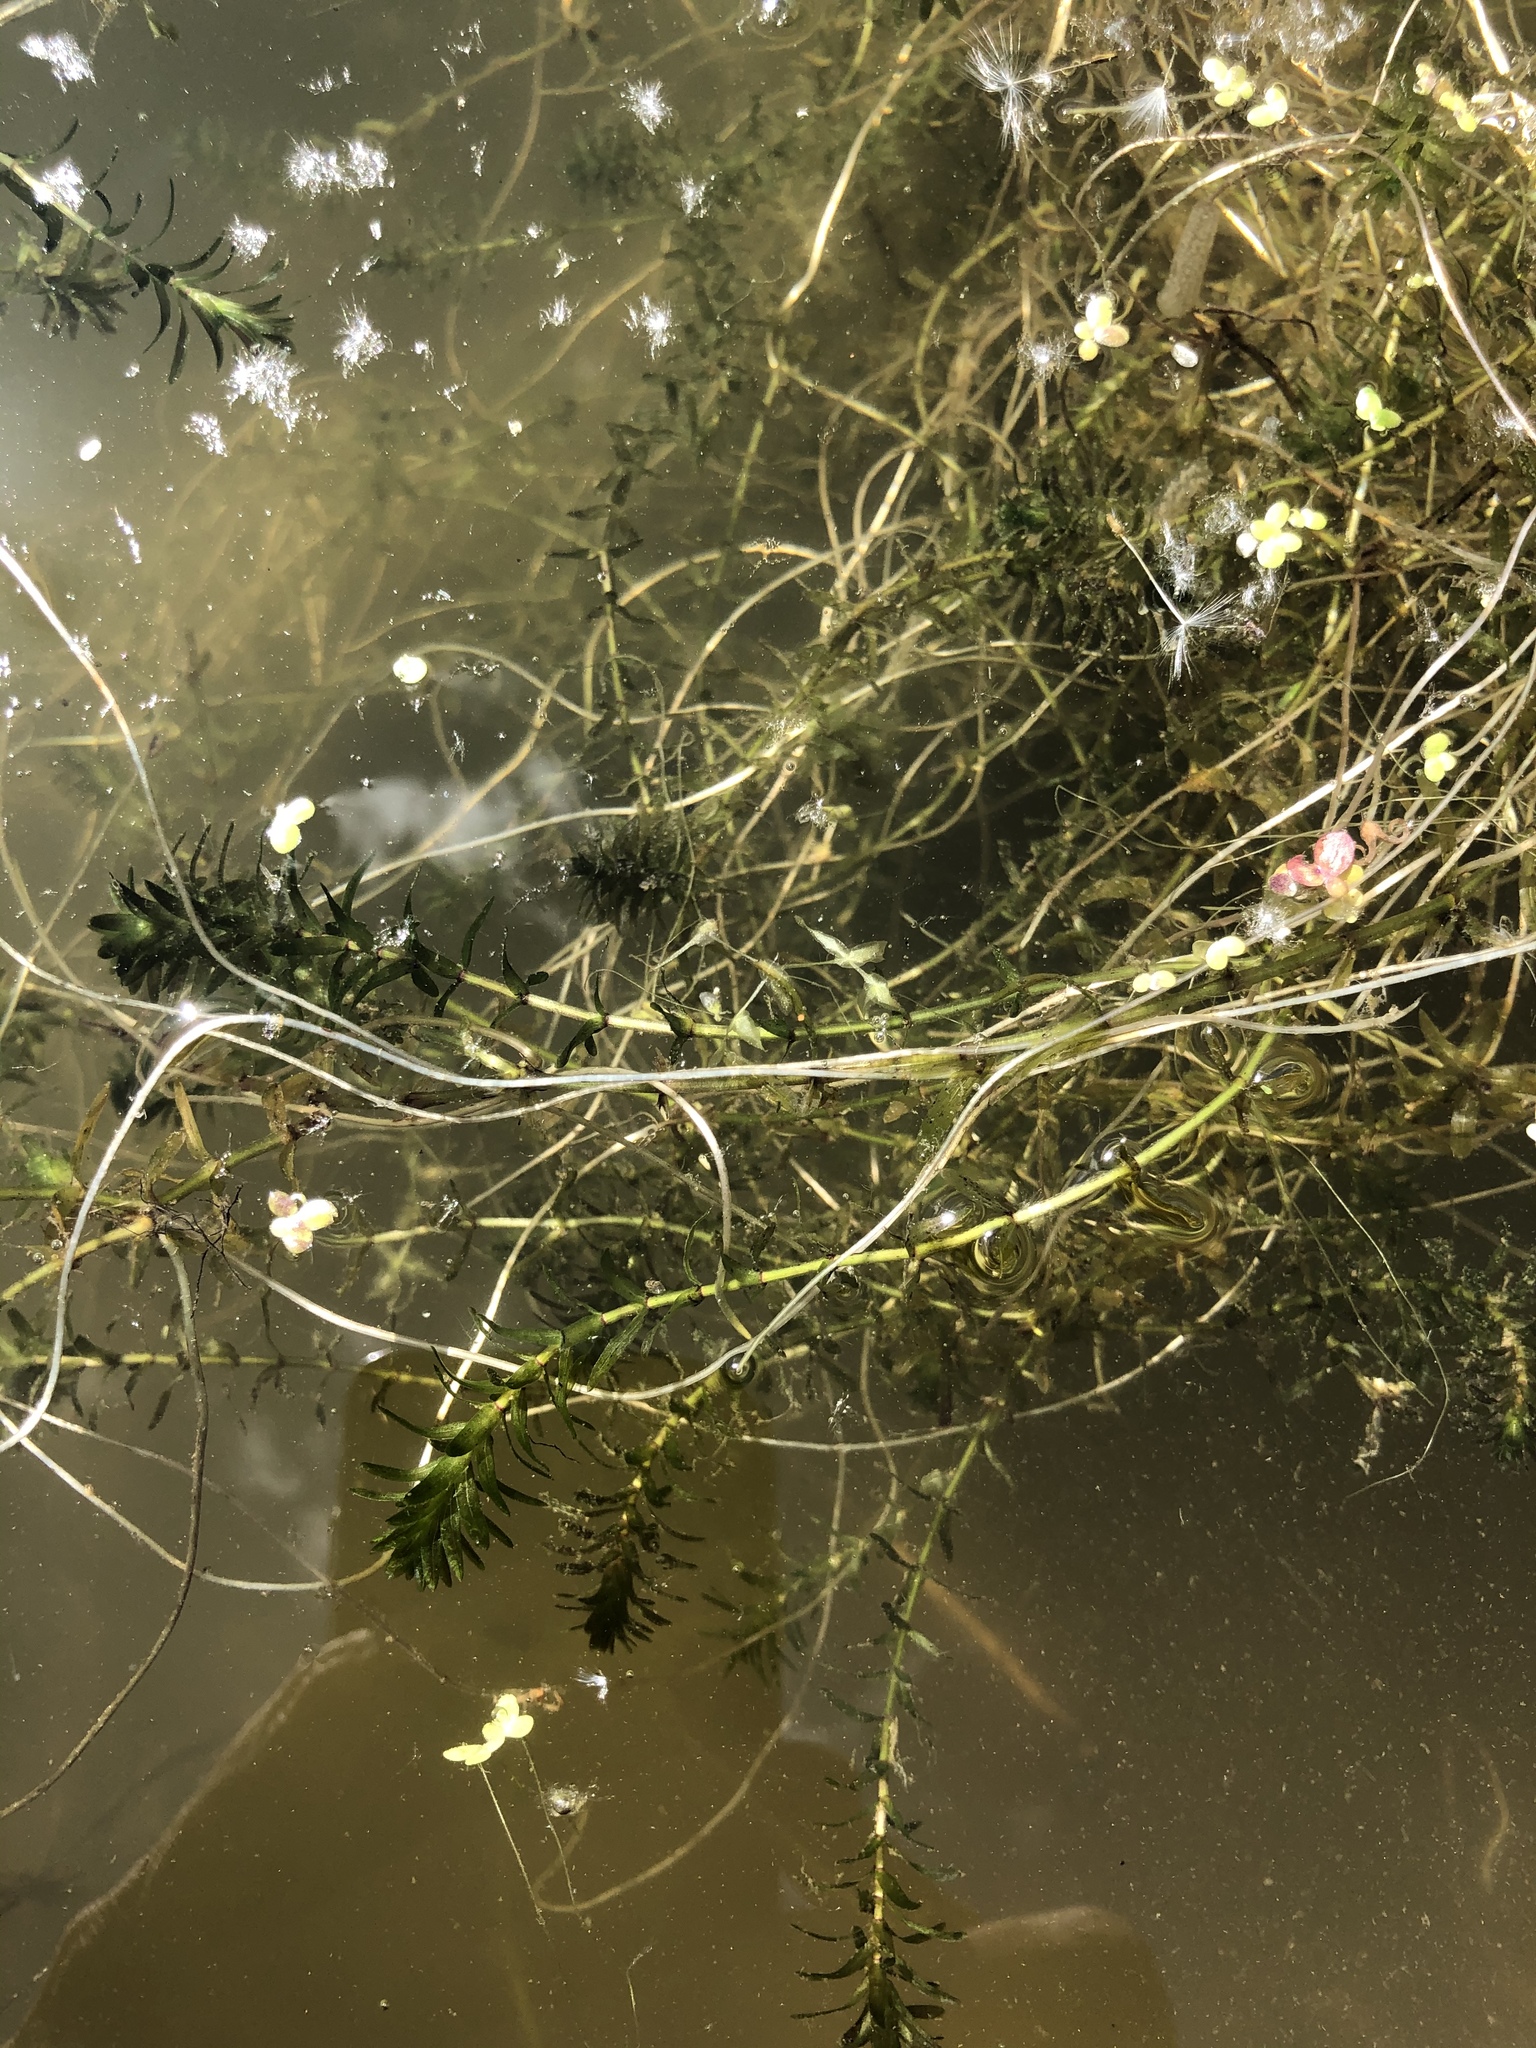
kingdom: Plantae
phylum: Tracheophyta
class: Liliopsida
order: Alismatales
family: Hydrocharitaceae
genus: Elodea
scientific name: Elodea canadensis
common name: Canadian waterweed
